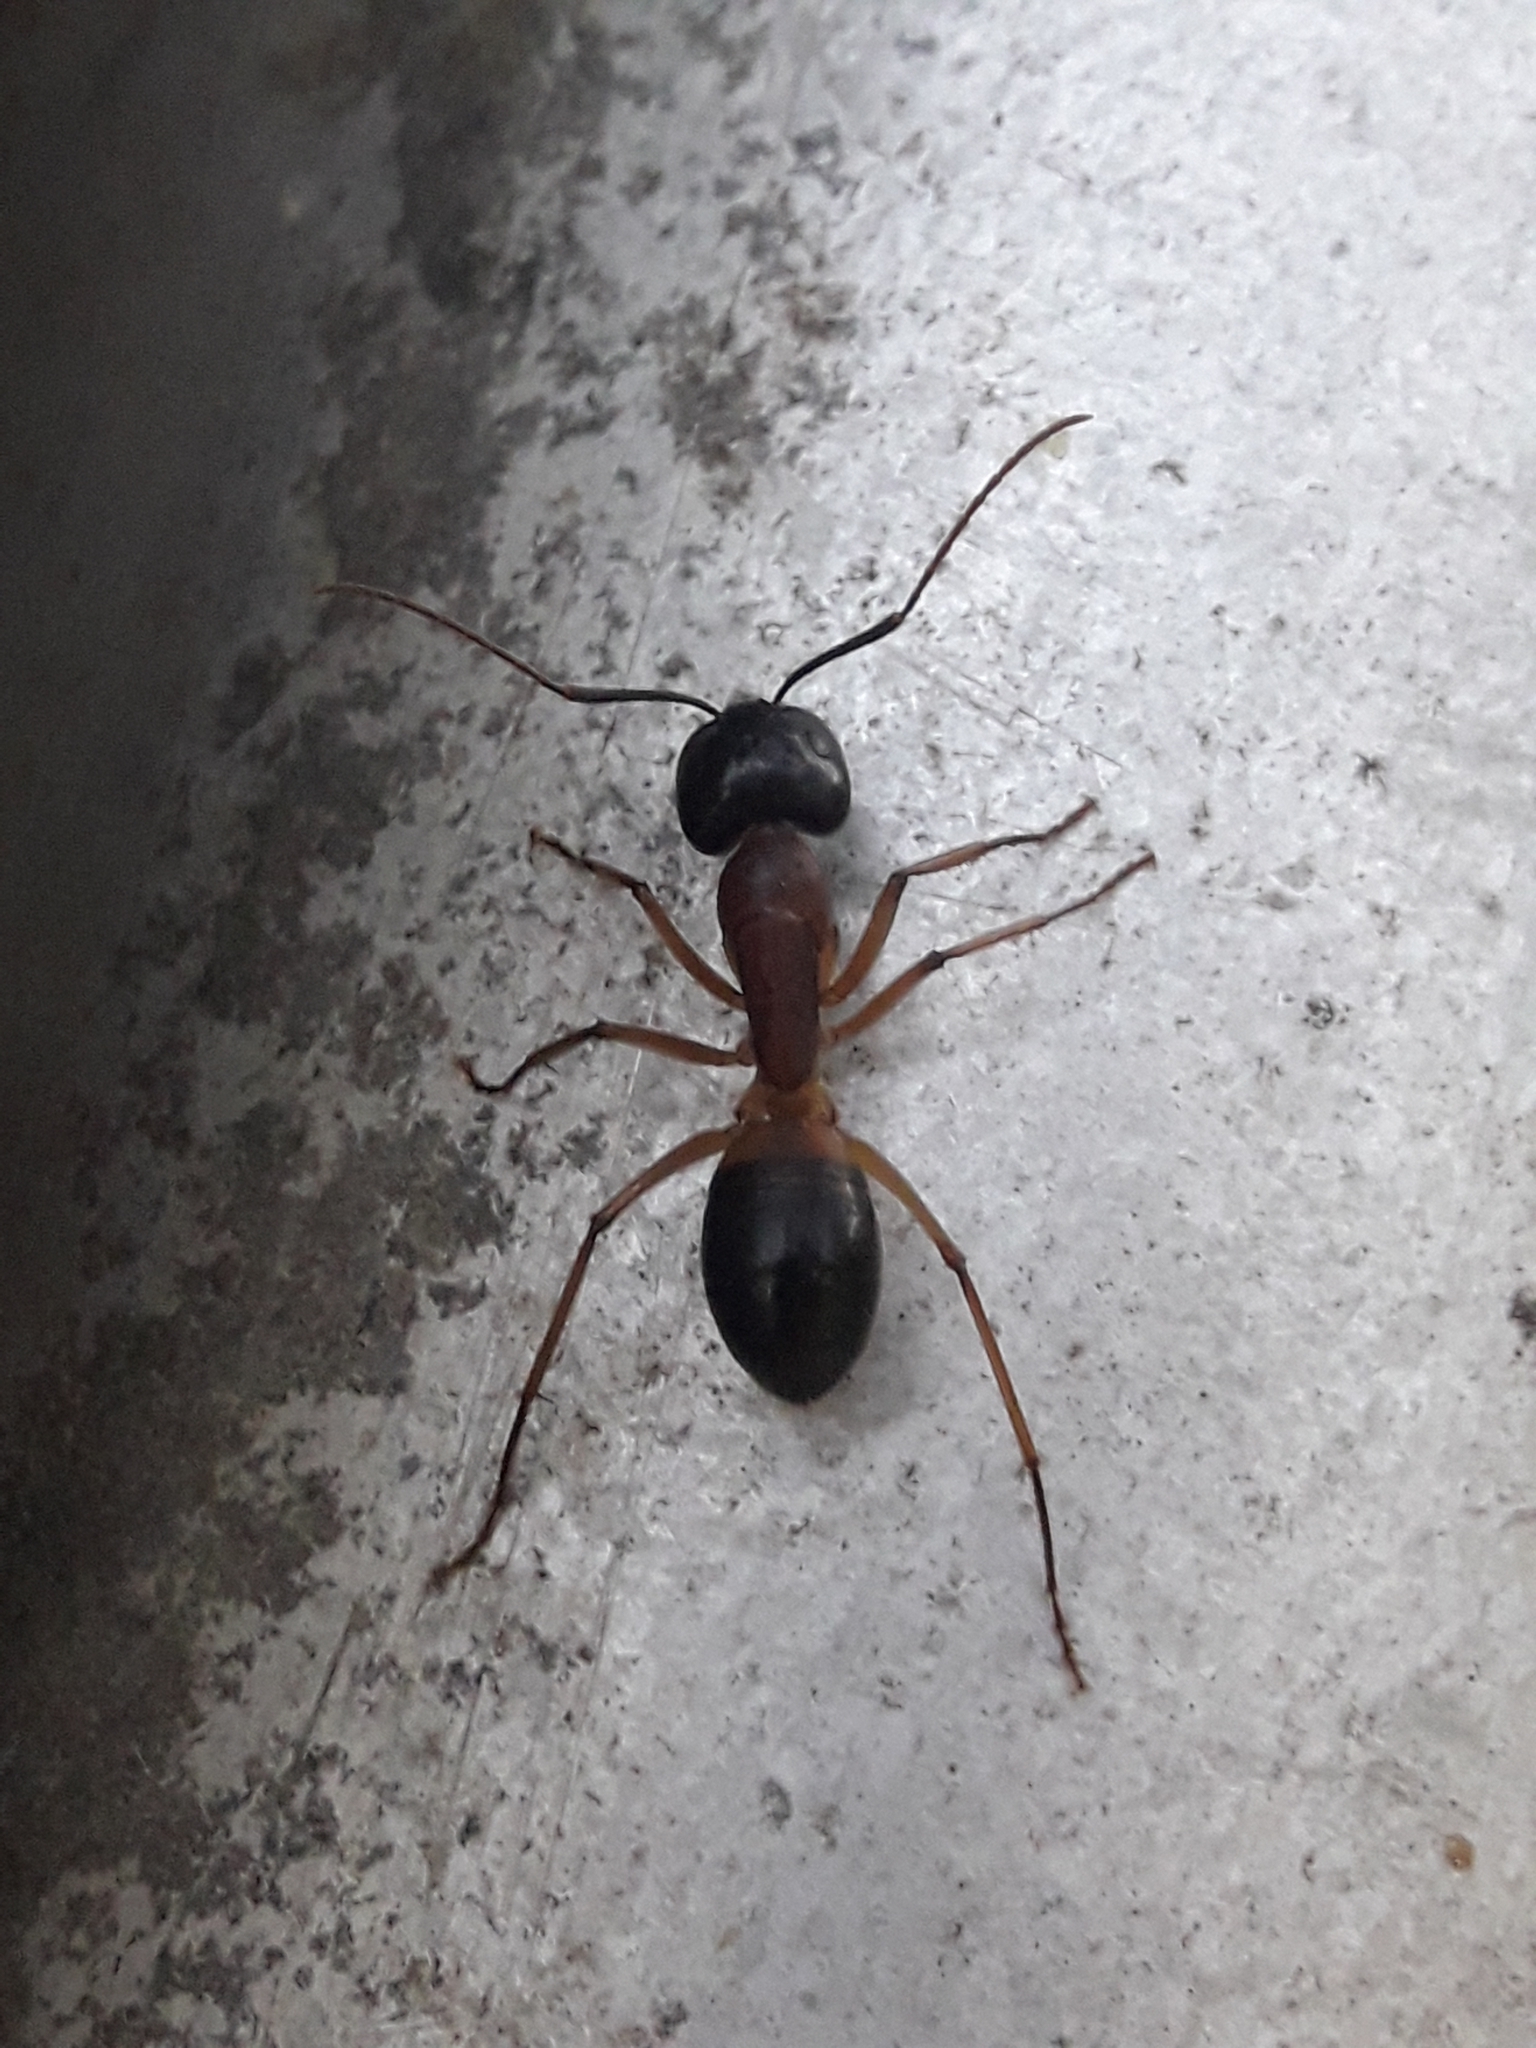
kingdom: Animalia
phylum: Arthropoda
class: Insecta
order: Hymenoptera
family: Formicidae
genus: Camponotus
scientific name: Camponotus consobrinus
